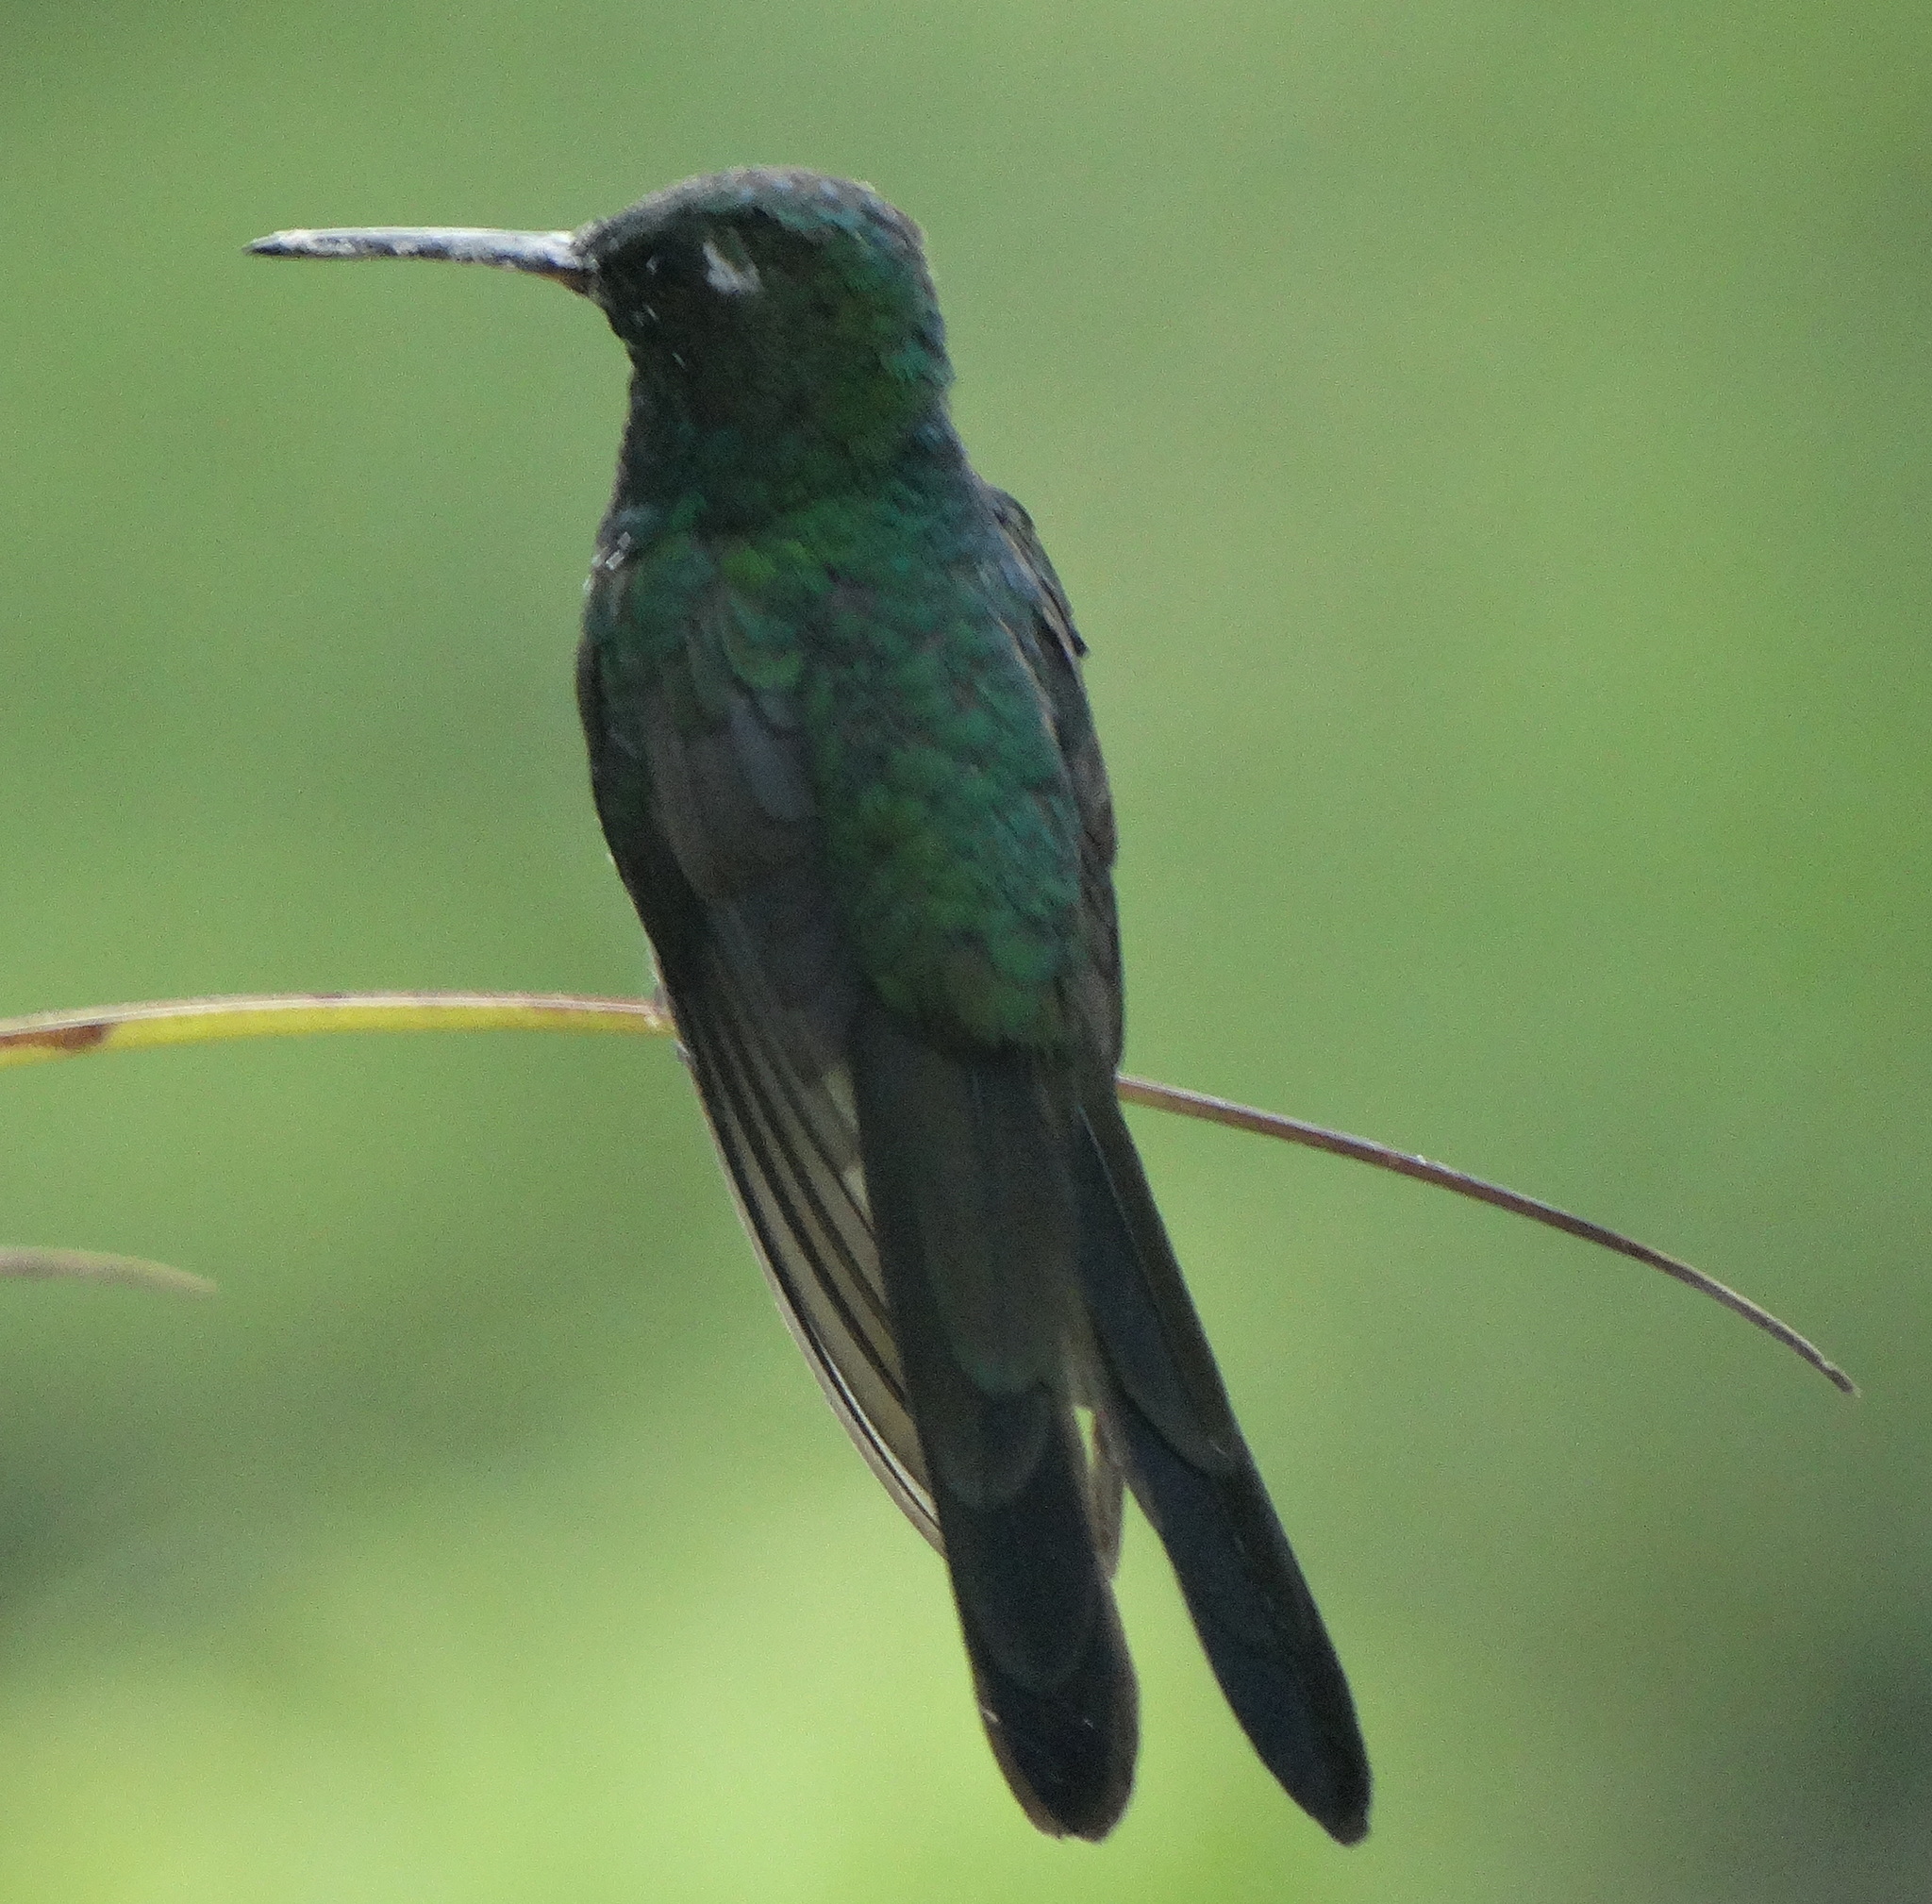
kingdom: Animalia
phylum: Chordata
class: Aves
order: Apodiformes
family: Trochilidae
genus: Riccordia
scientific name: Riccordia ricordii
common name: Cuban emerald
